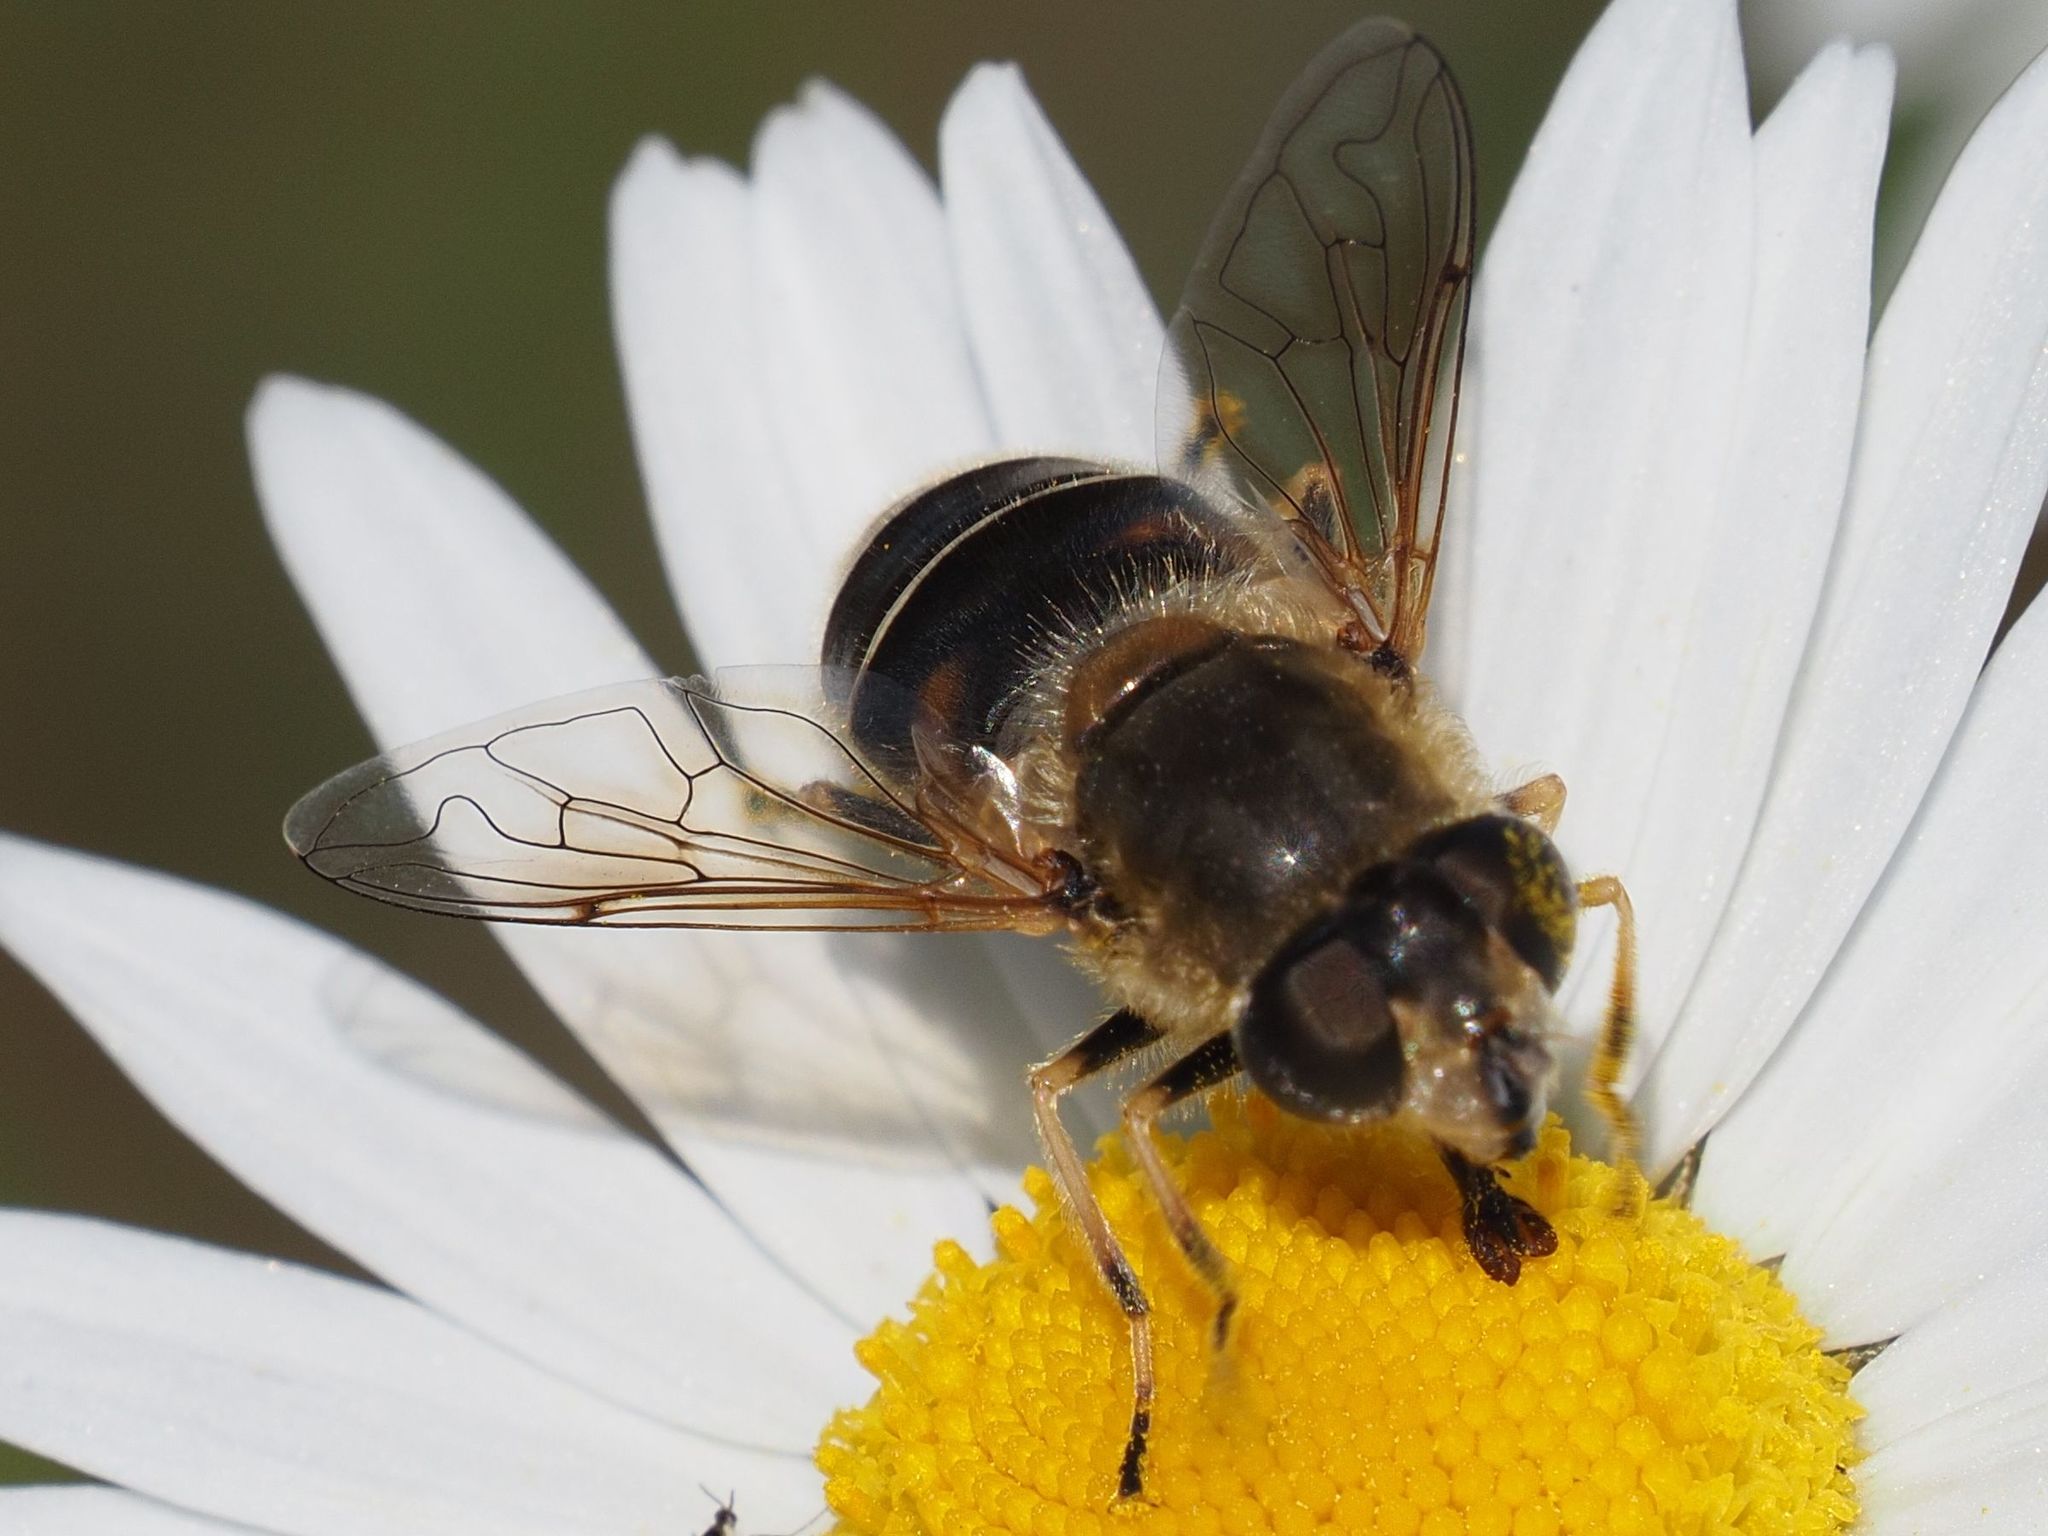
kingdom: Animalia
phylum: Arthropoda
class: Insecta
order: Diptera
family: Syrphidae
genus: Eristalis
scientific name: Eristalis nemorum
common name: Orange-spined drone fly
